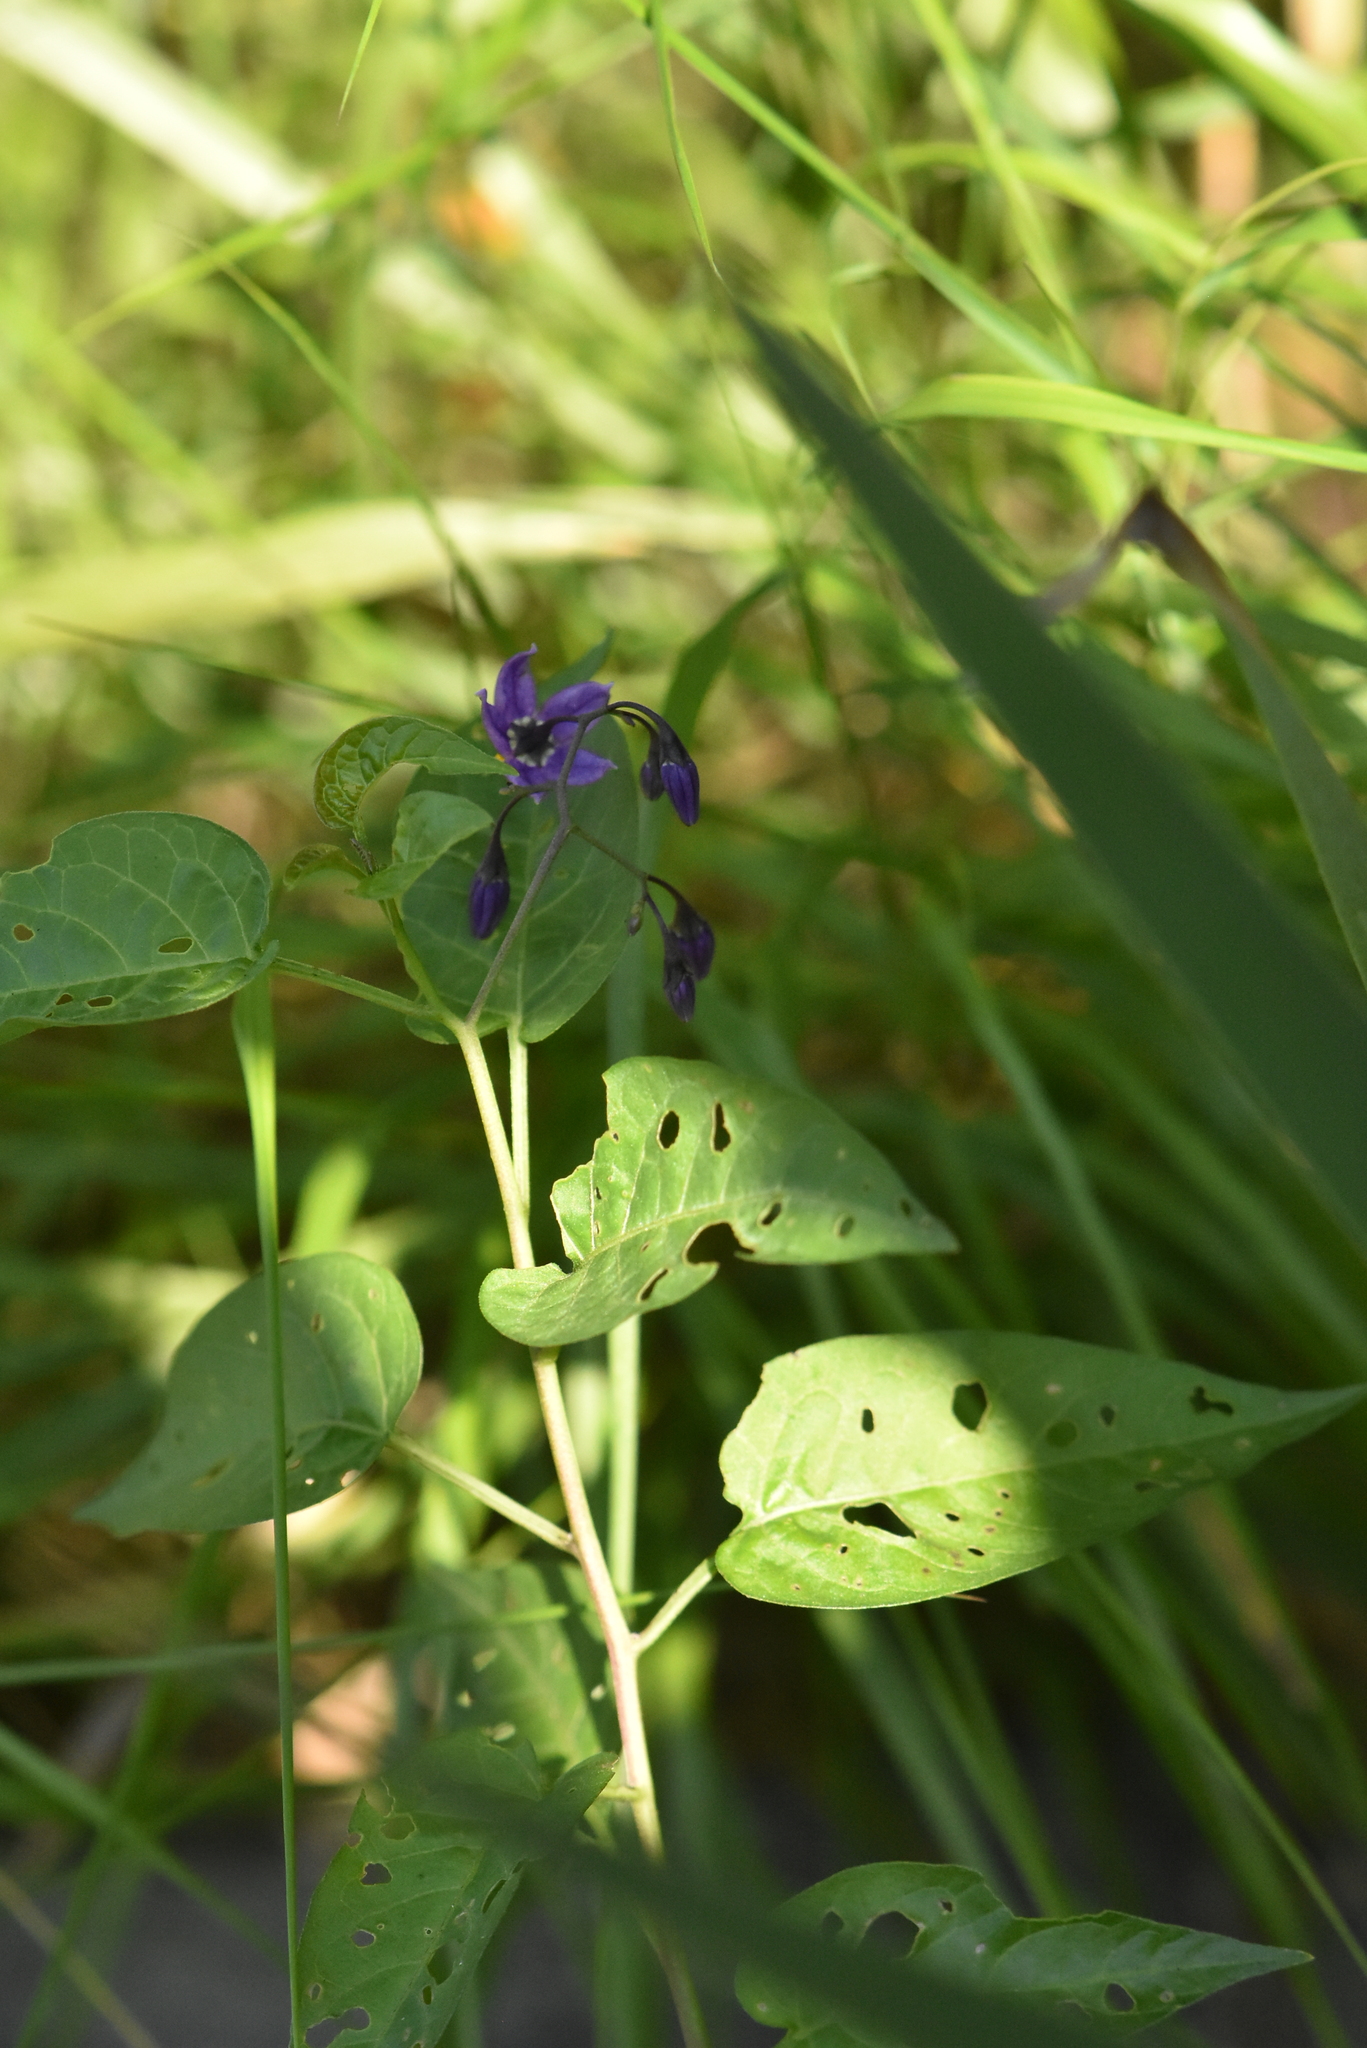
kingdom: Plantae
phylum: Tracheophyta
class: Magnoliopsida
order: Solanales
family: Solanaceae
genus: Solanum
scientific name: Solanum dulcamara
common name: Climbing nightshade
